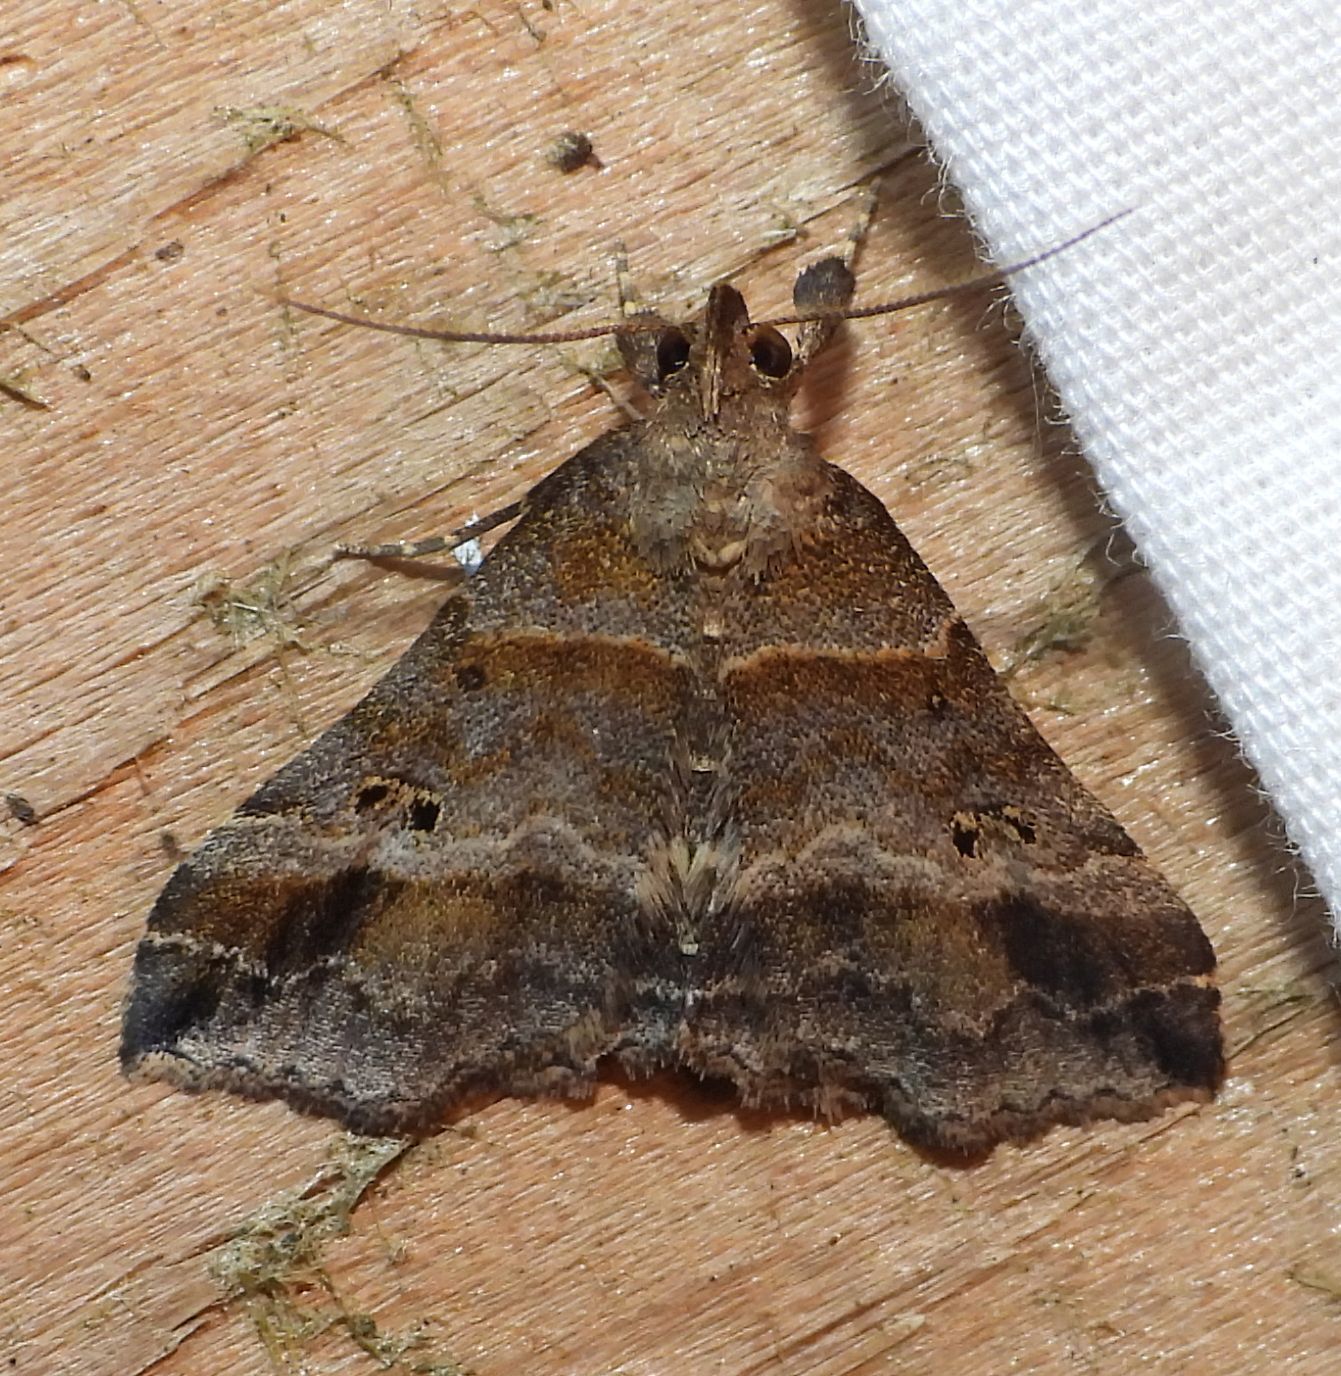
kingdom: Animalia
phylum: Arthropoda
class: Insecta
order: Lepidoptera
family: Erebidae
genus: Phaeolita
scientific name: Phaeolita pyramusalis
